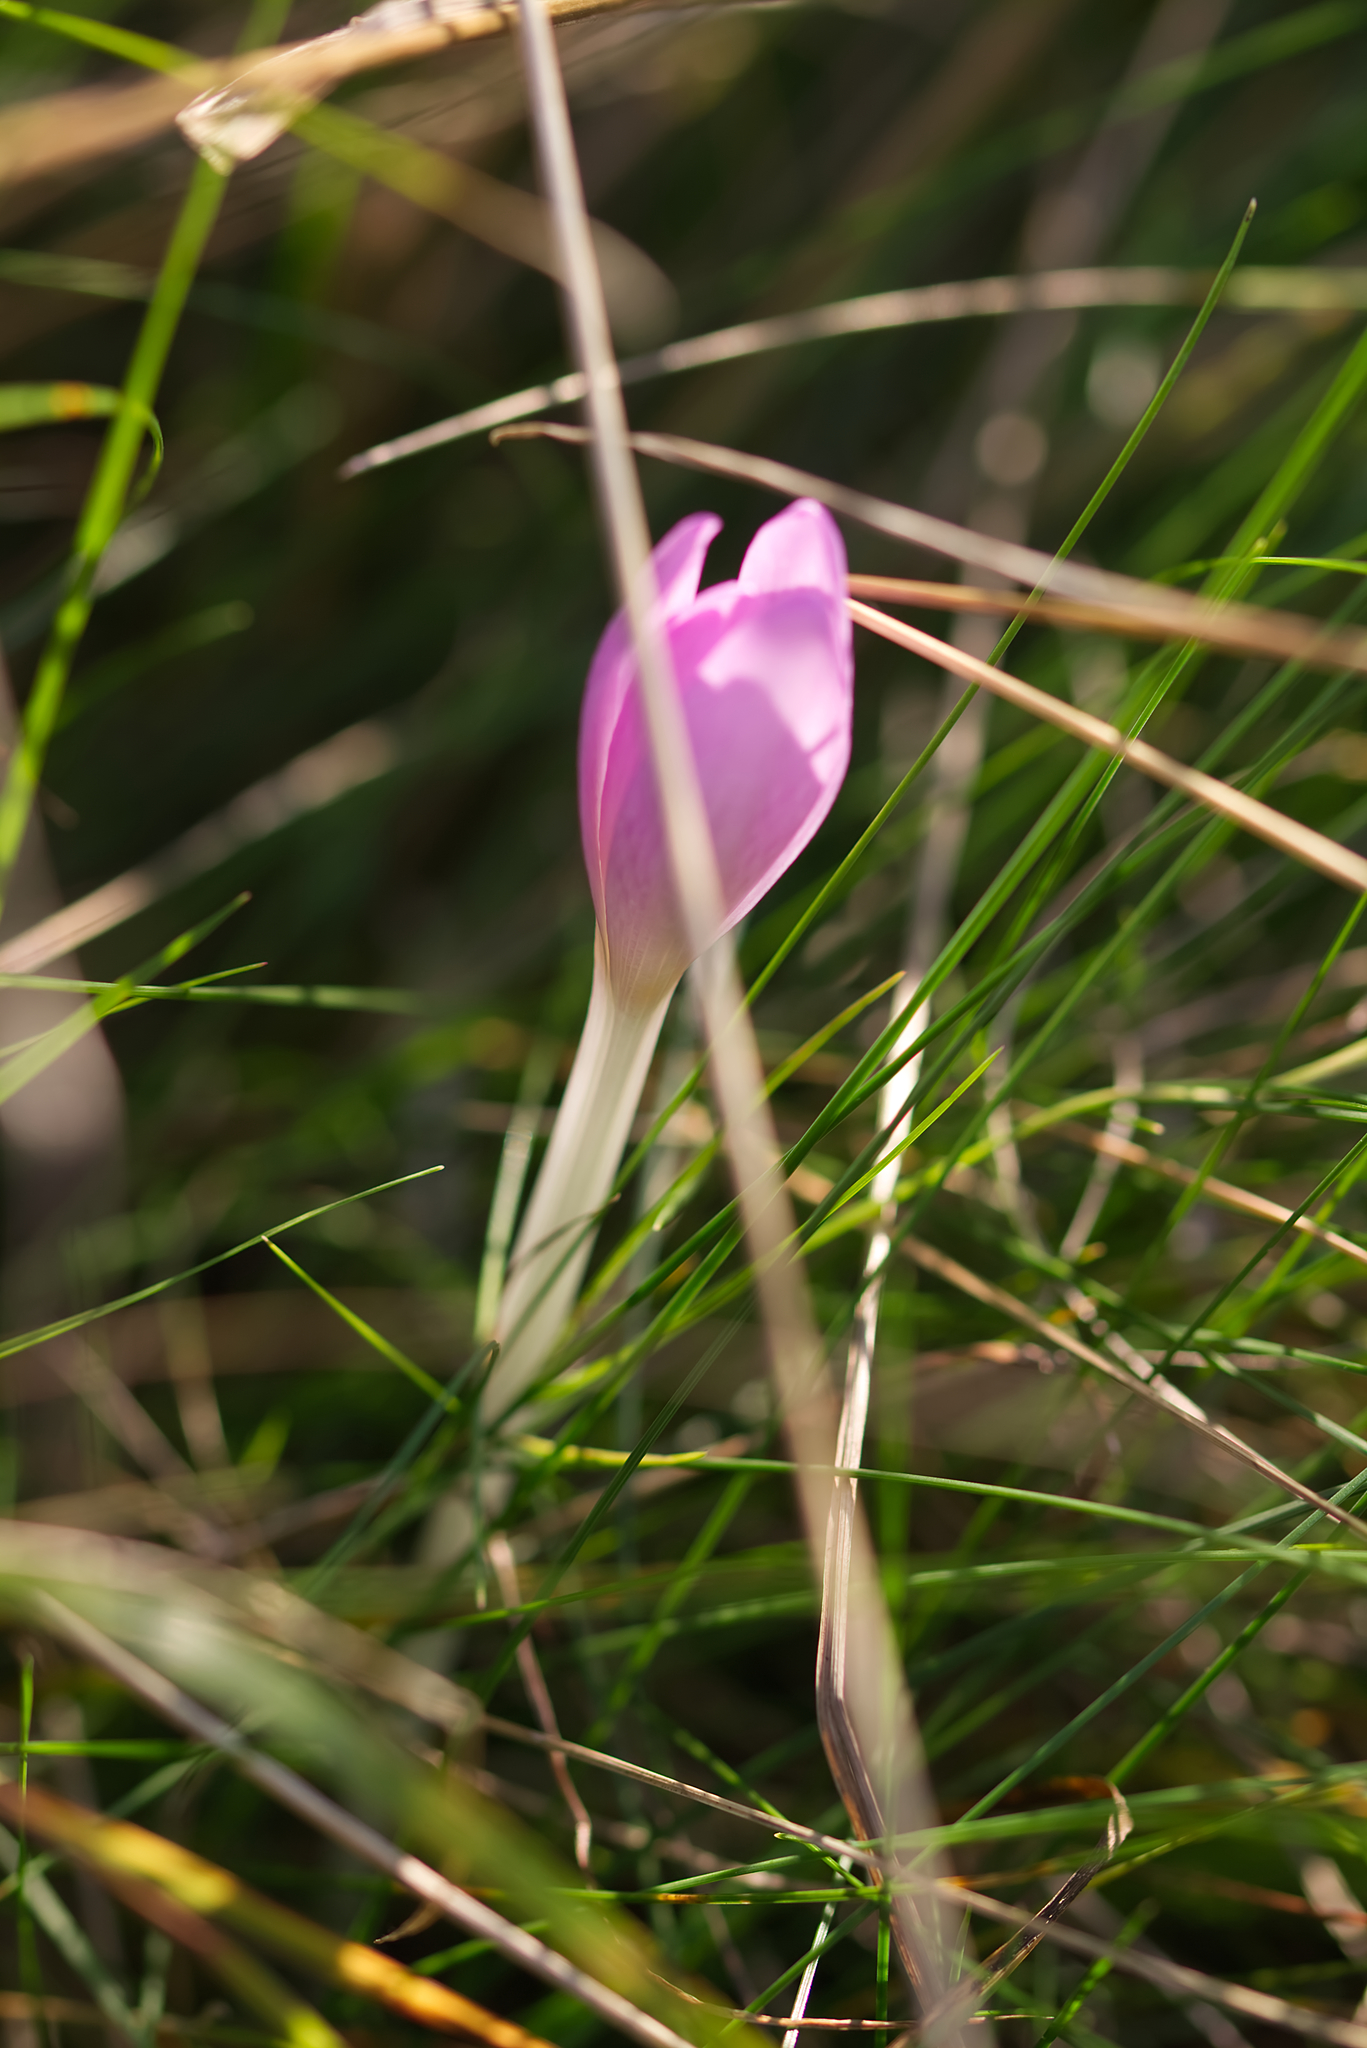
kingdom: Plantae
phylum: Tracheophyta
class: Liliopsida
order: Liliales
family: Colchicaceae
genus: Colchicum
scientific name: Colchicum autumnale
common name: Autumn crocus
